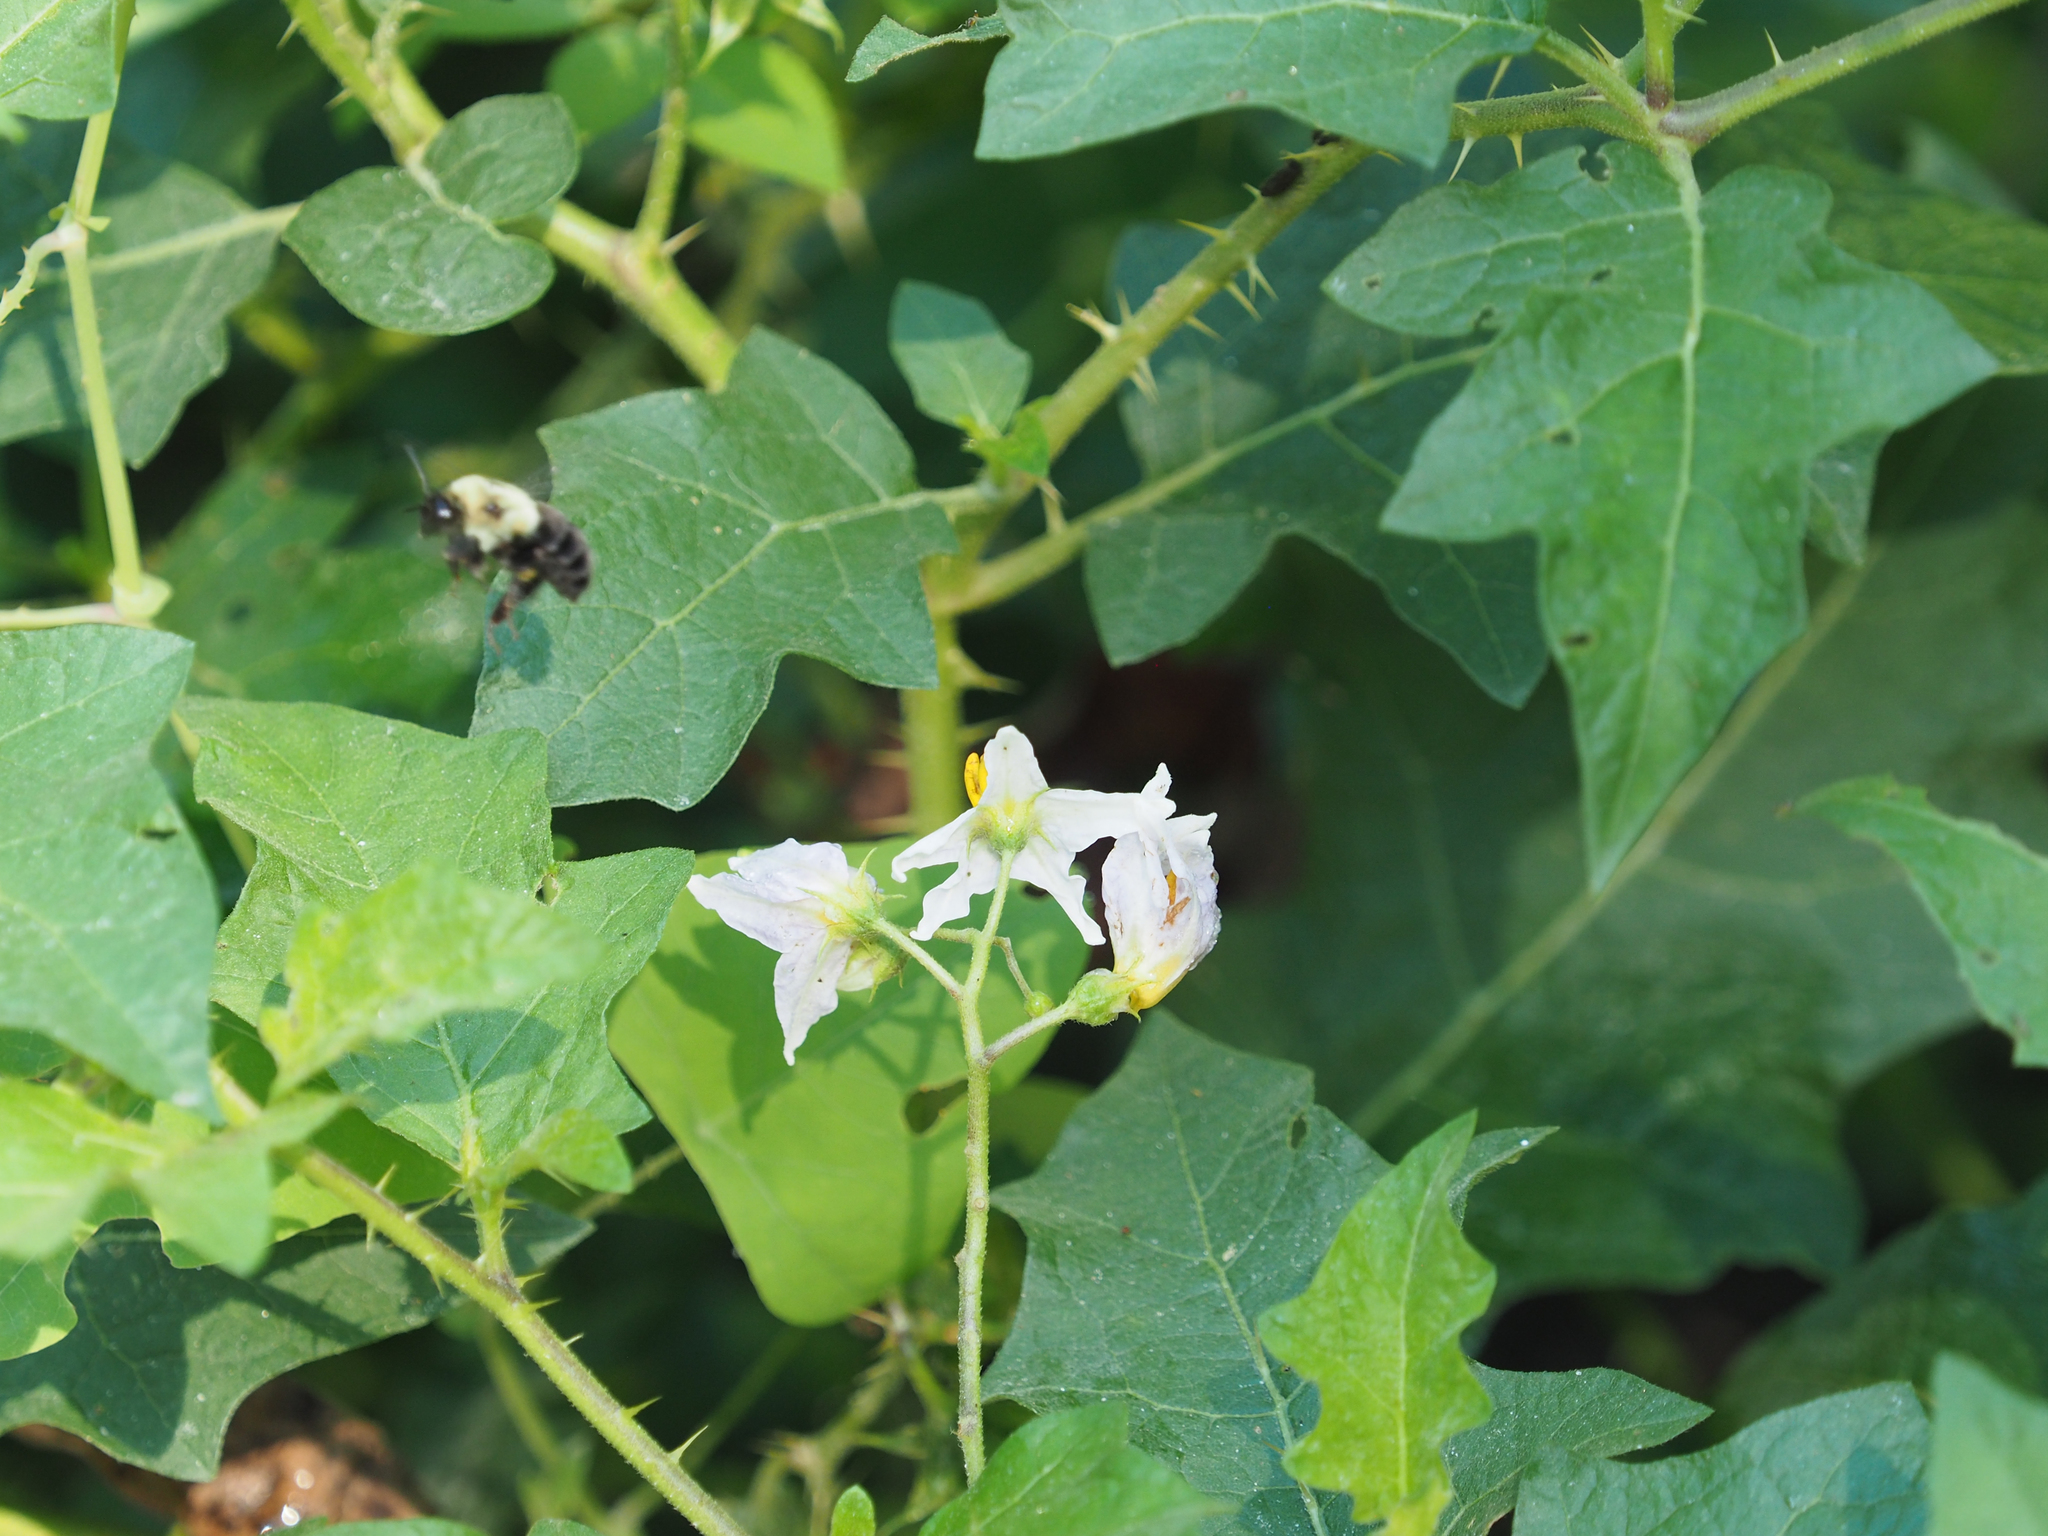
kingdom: Plantae
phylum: Tracheophyta
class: Magnoliopsida
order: Solanales
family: Solanaceae
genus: Solanum
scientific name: Solanum carolinense
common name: Horse-nettle
